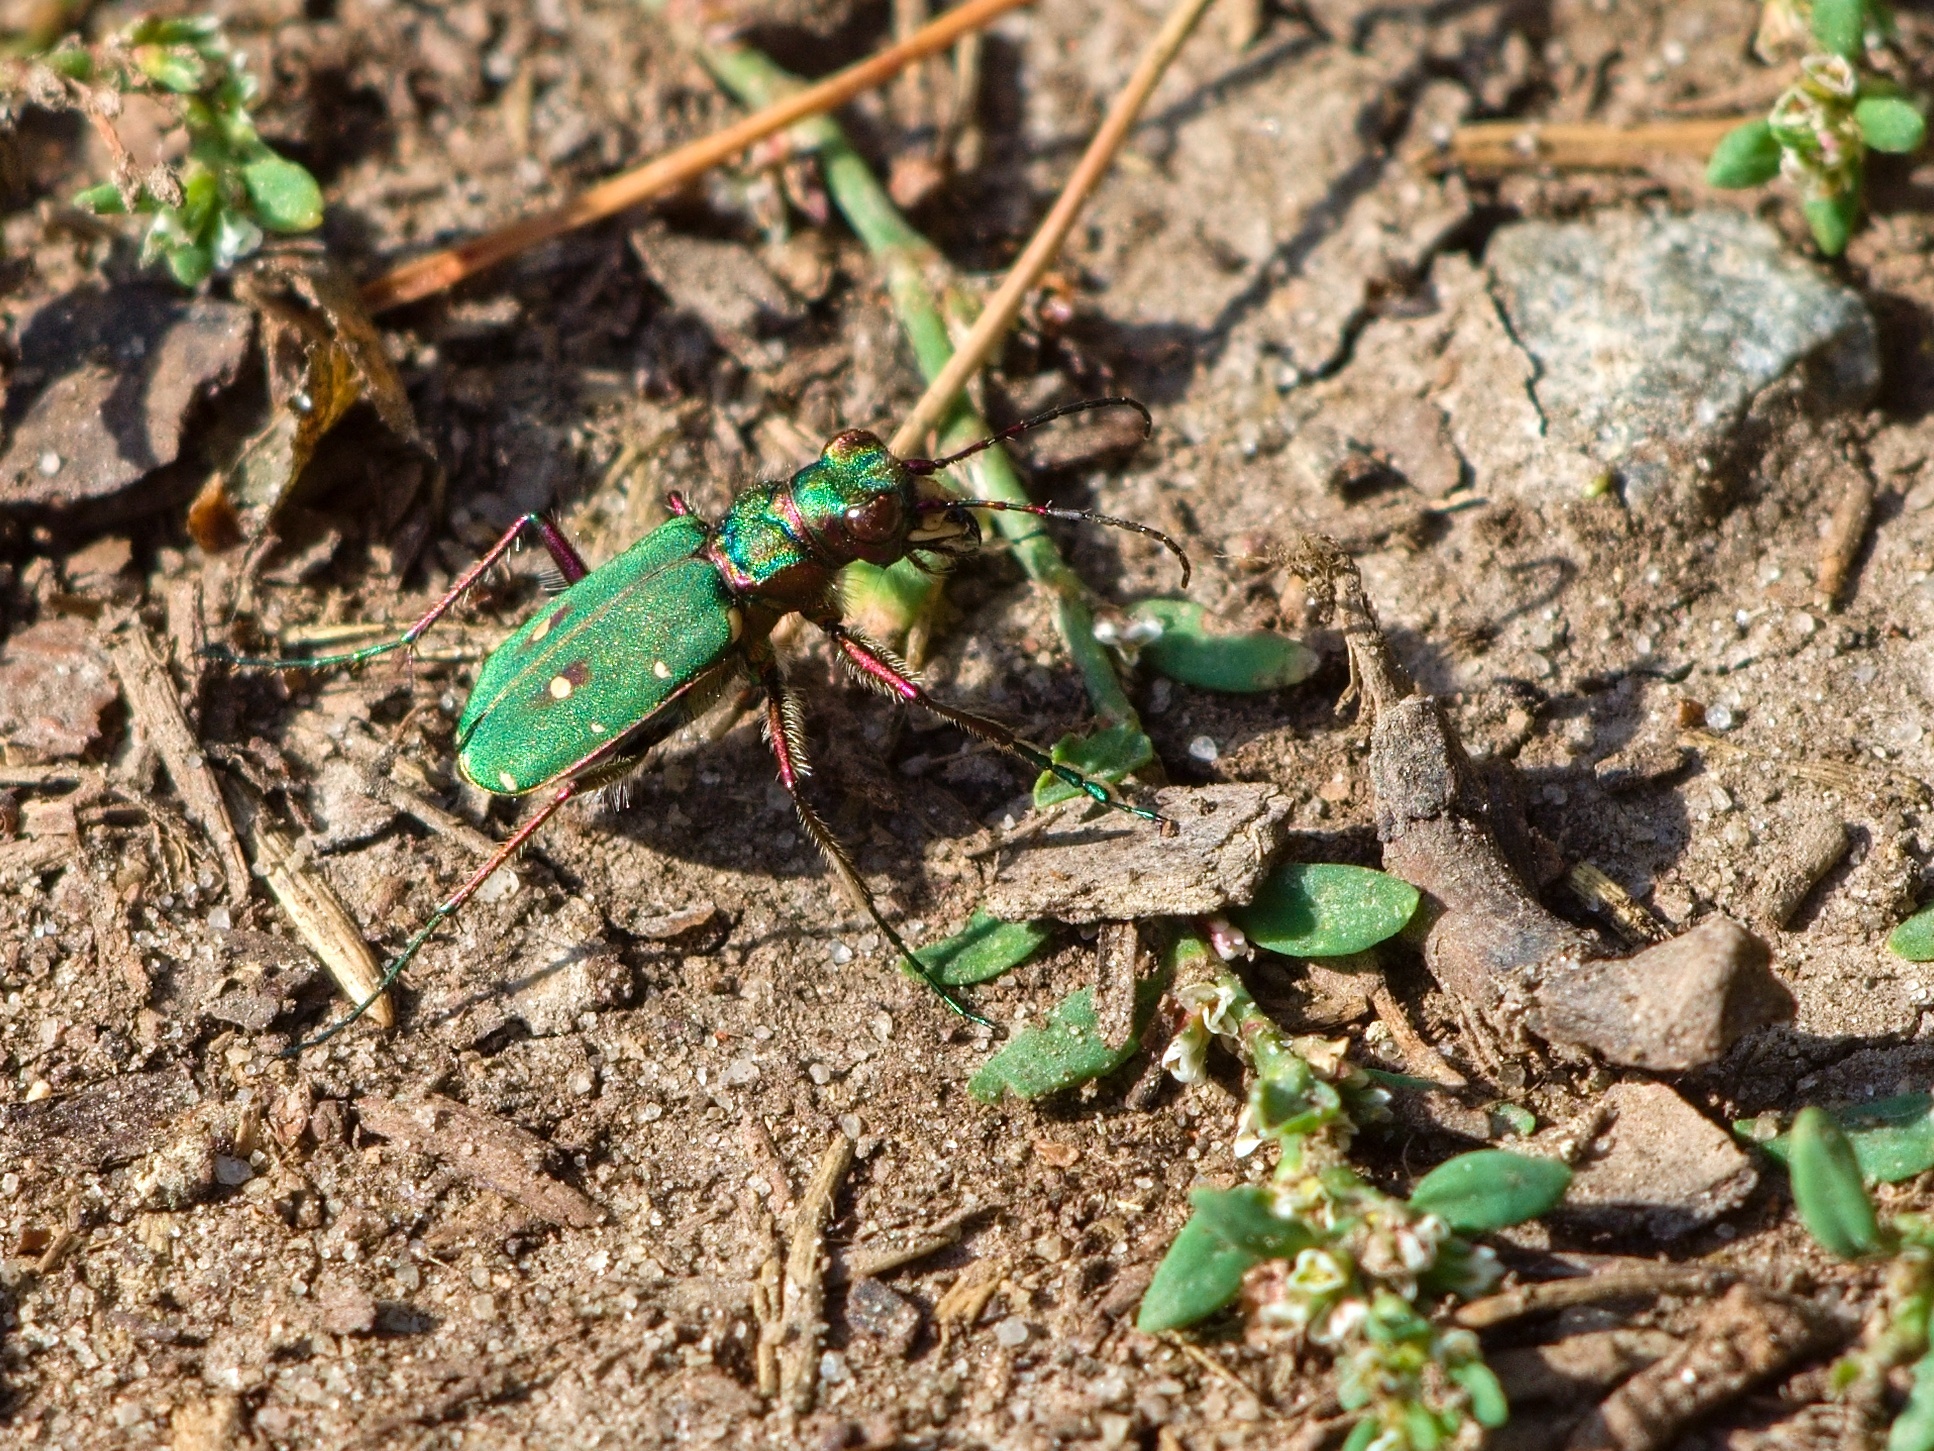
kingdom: Animalia
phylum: Arthropoda
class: Insecta
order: Coleoptera
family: Carabidae
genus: Cicindela
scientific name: Cicindela campestris
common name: Common tiger beetle
